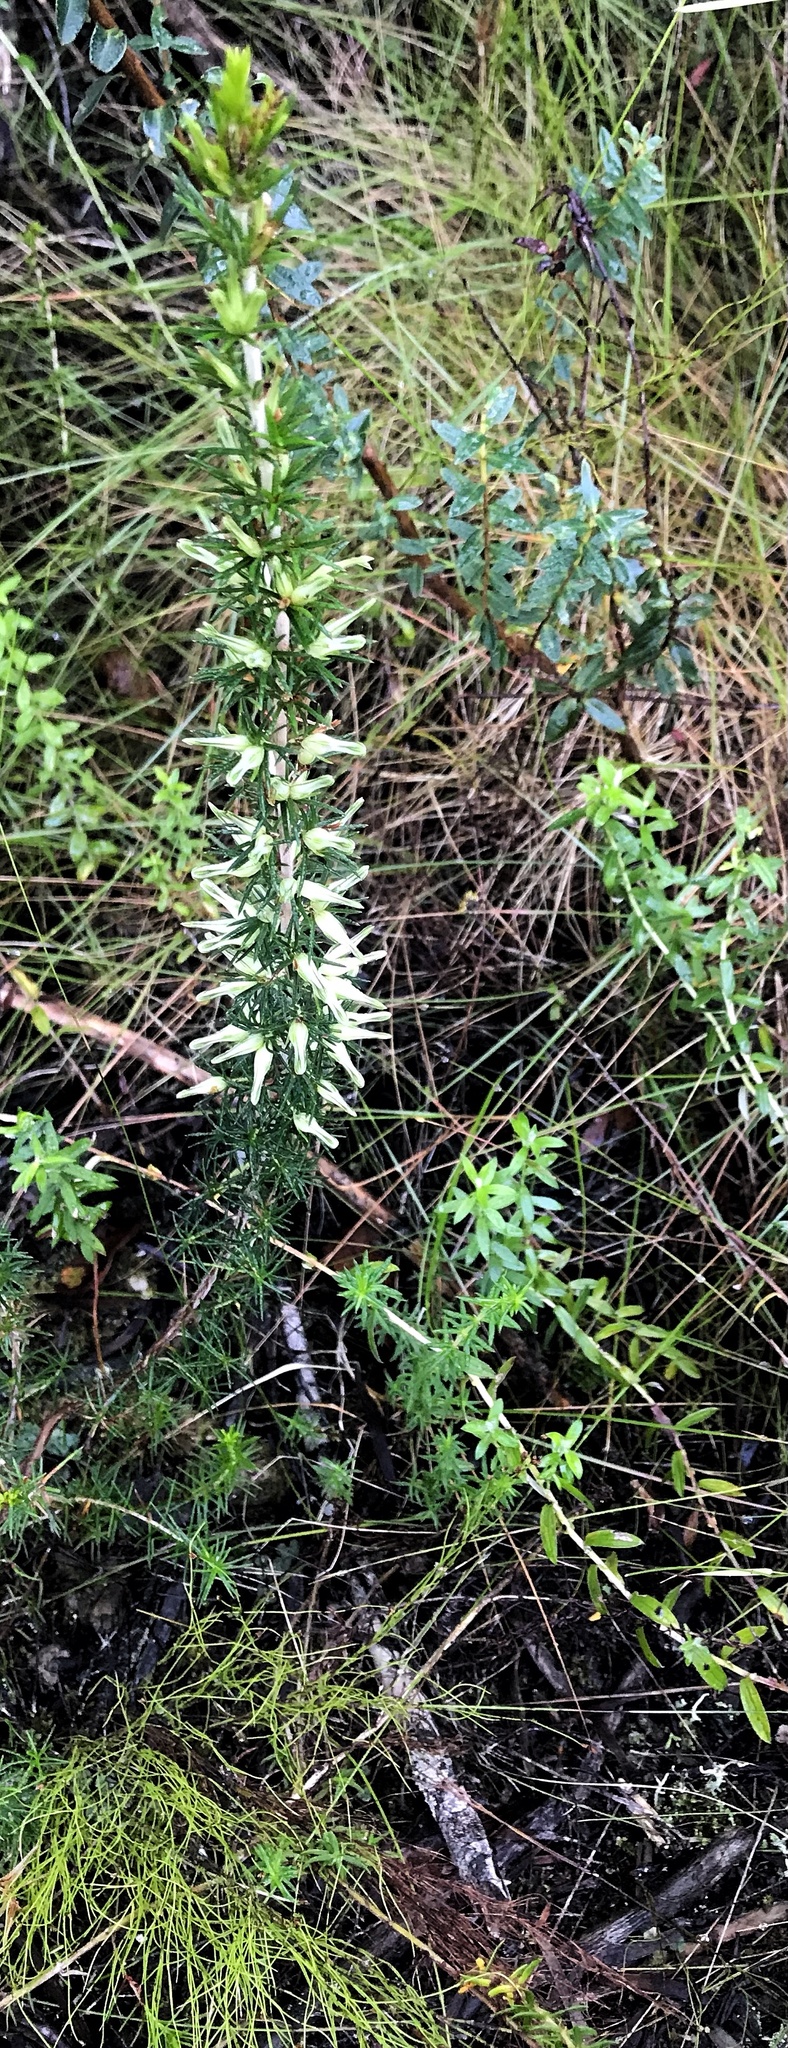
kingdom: Plantae
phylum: Tracheophyta
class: Magnoliopsida
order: Ericales
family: Ericaceae
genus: Erica
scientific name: Erica nabea
